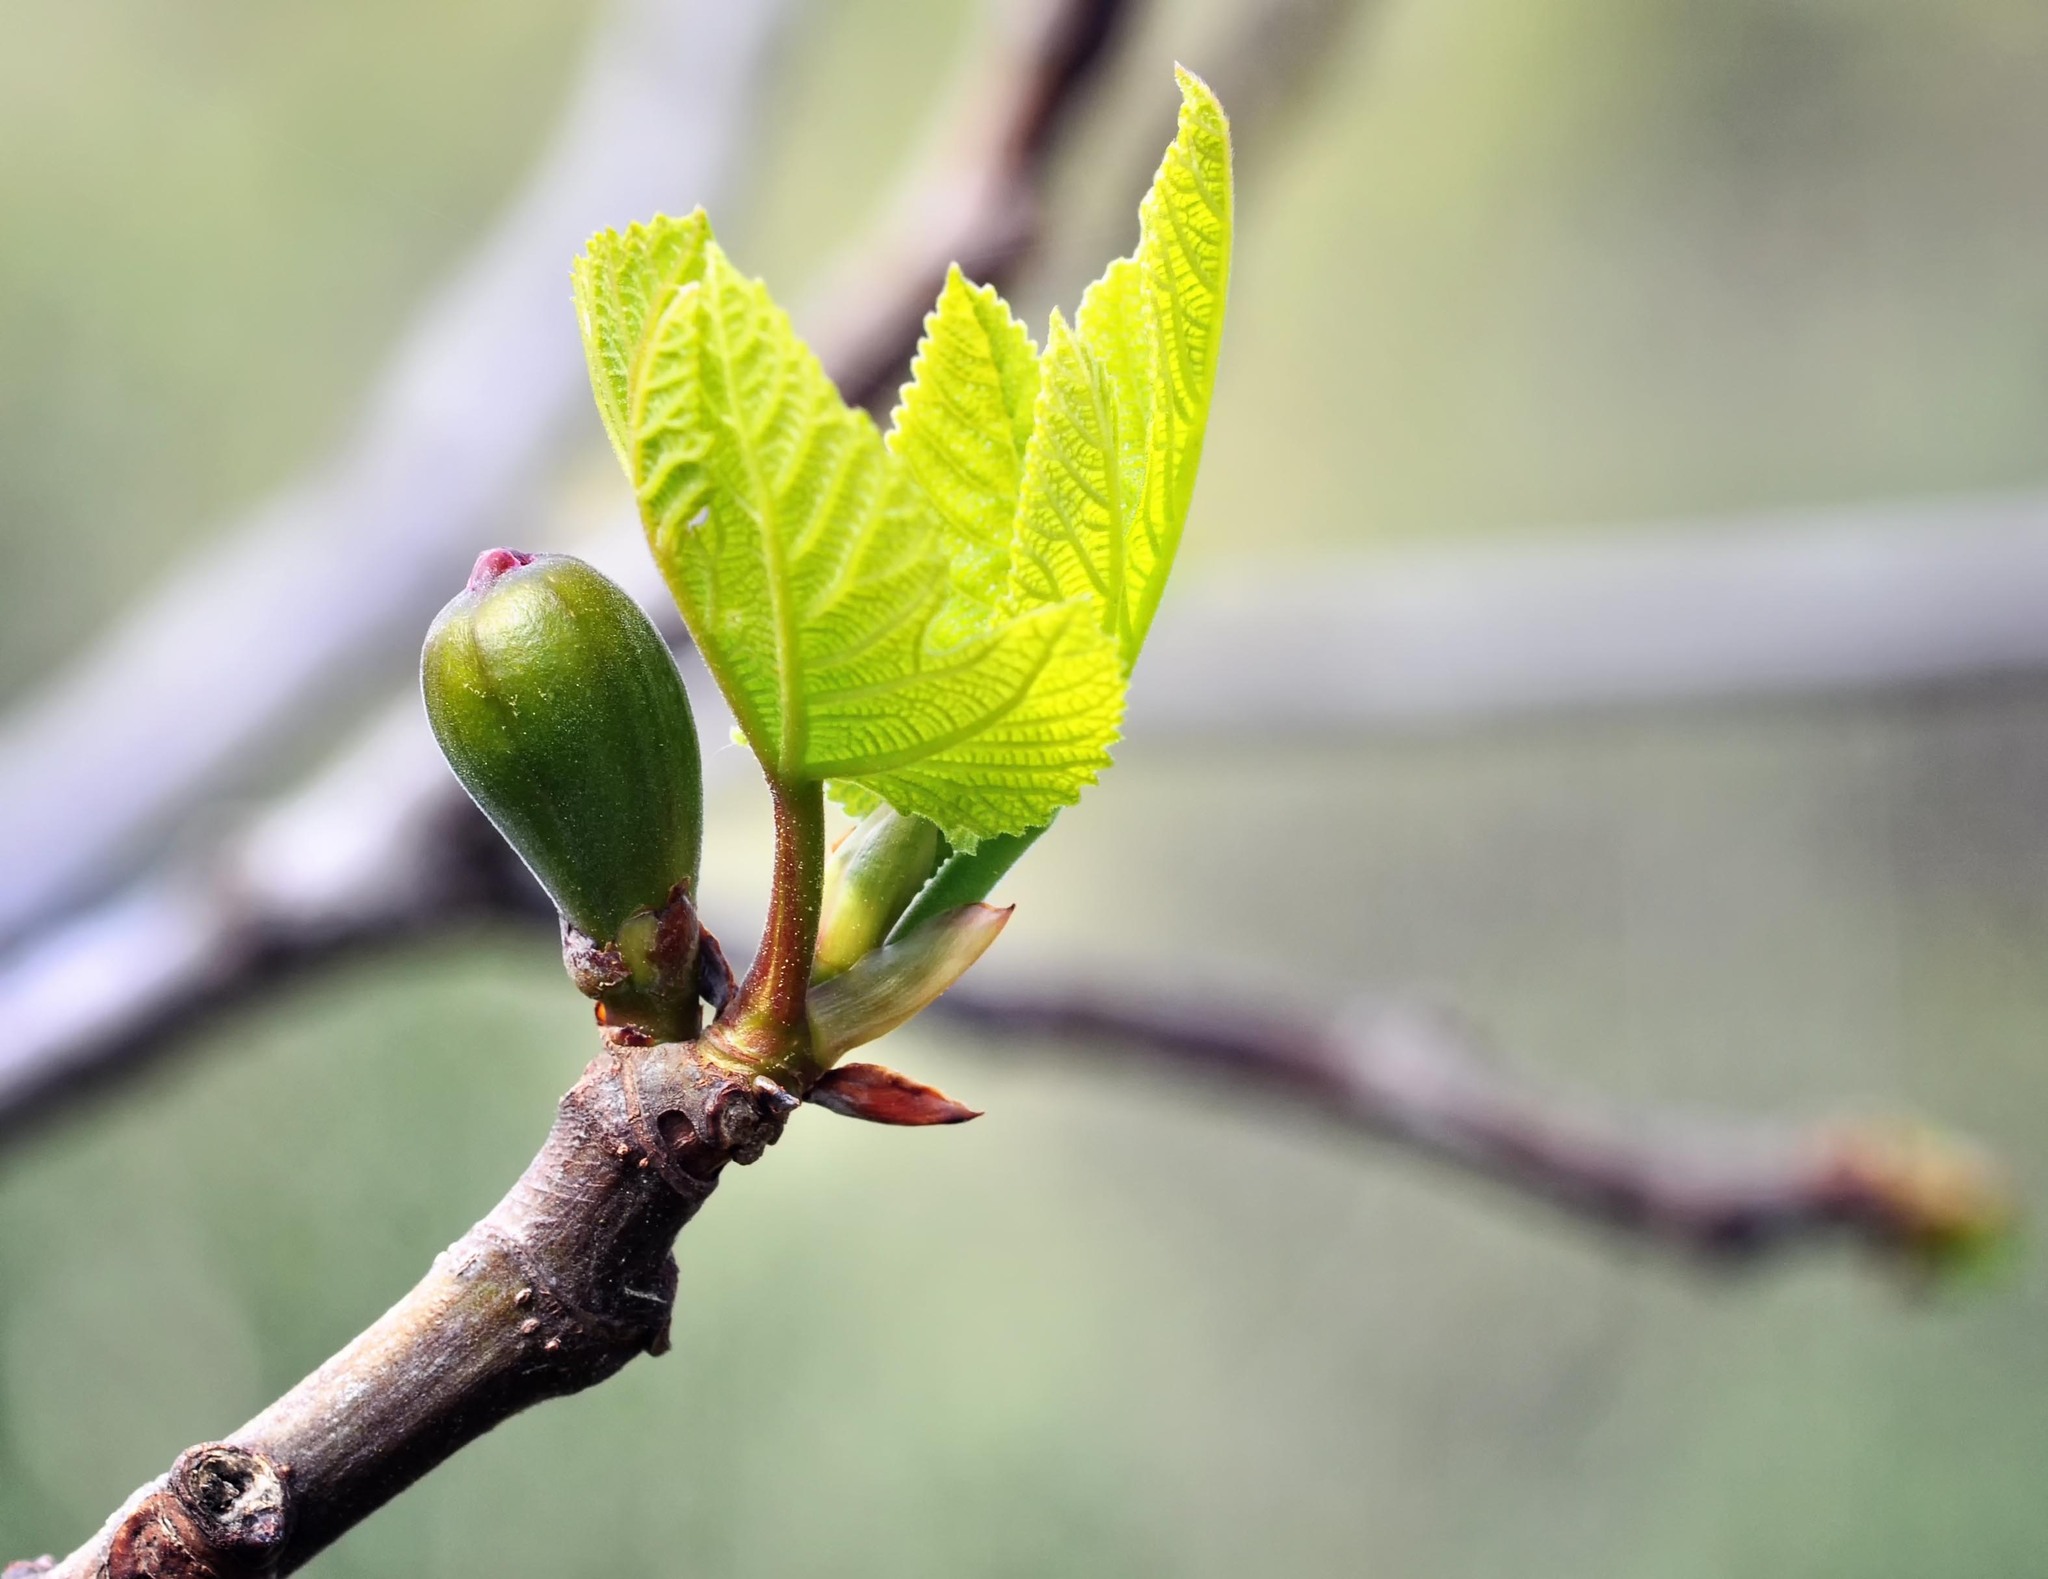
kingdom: Plantae
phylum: Tracheophyta
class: Magnoliopsida
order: Rosales
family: Moraceae
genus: Ficus
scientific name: Ficus carica
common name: Fig
